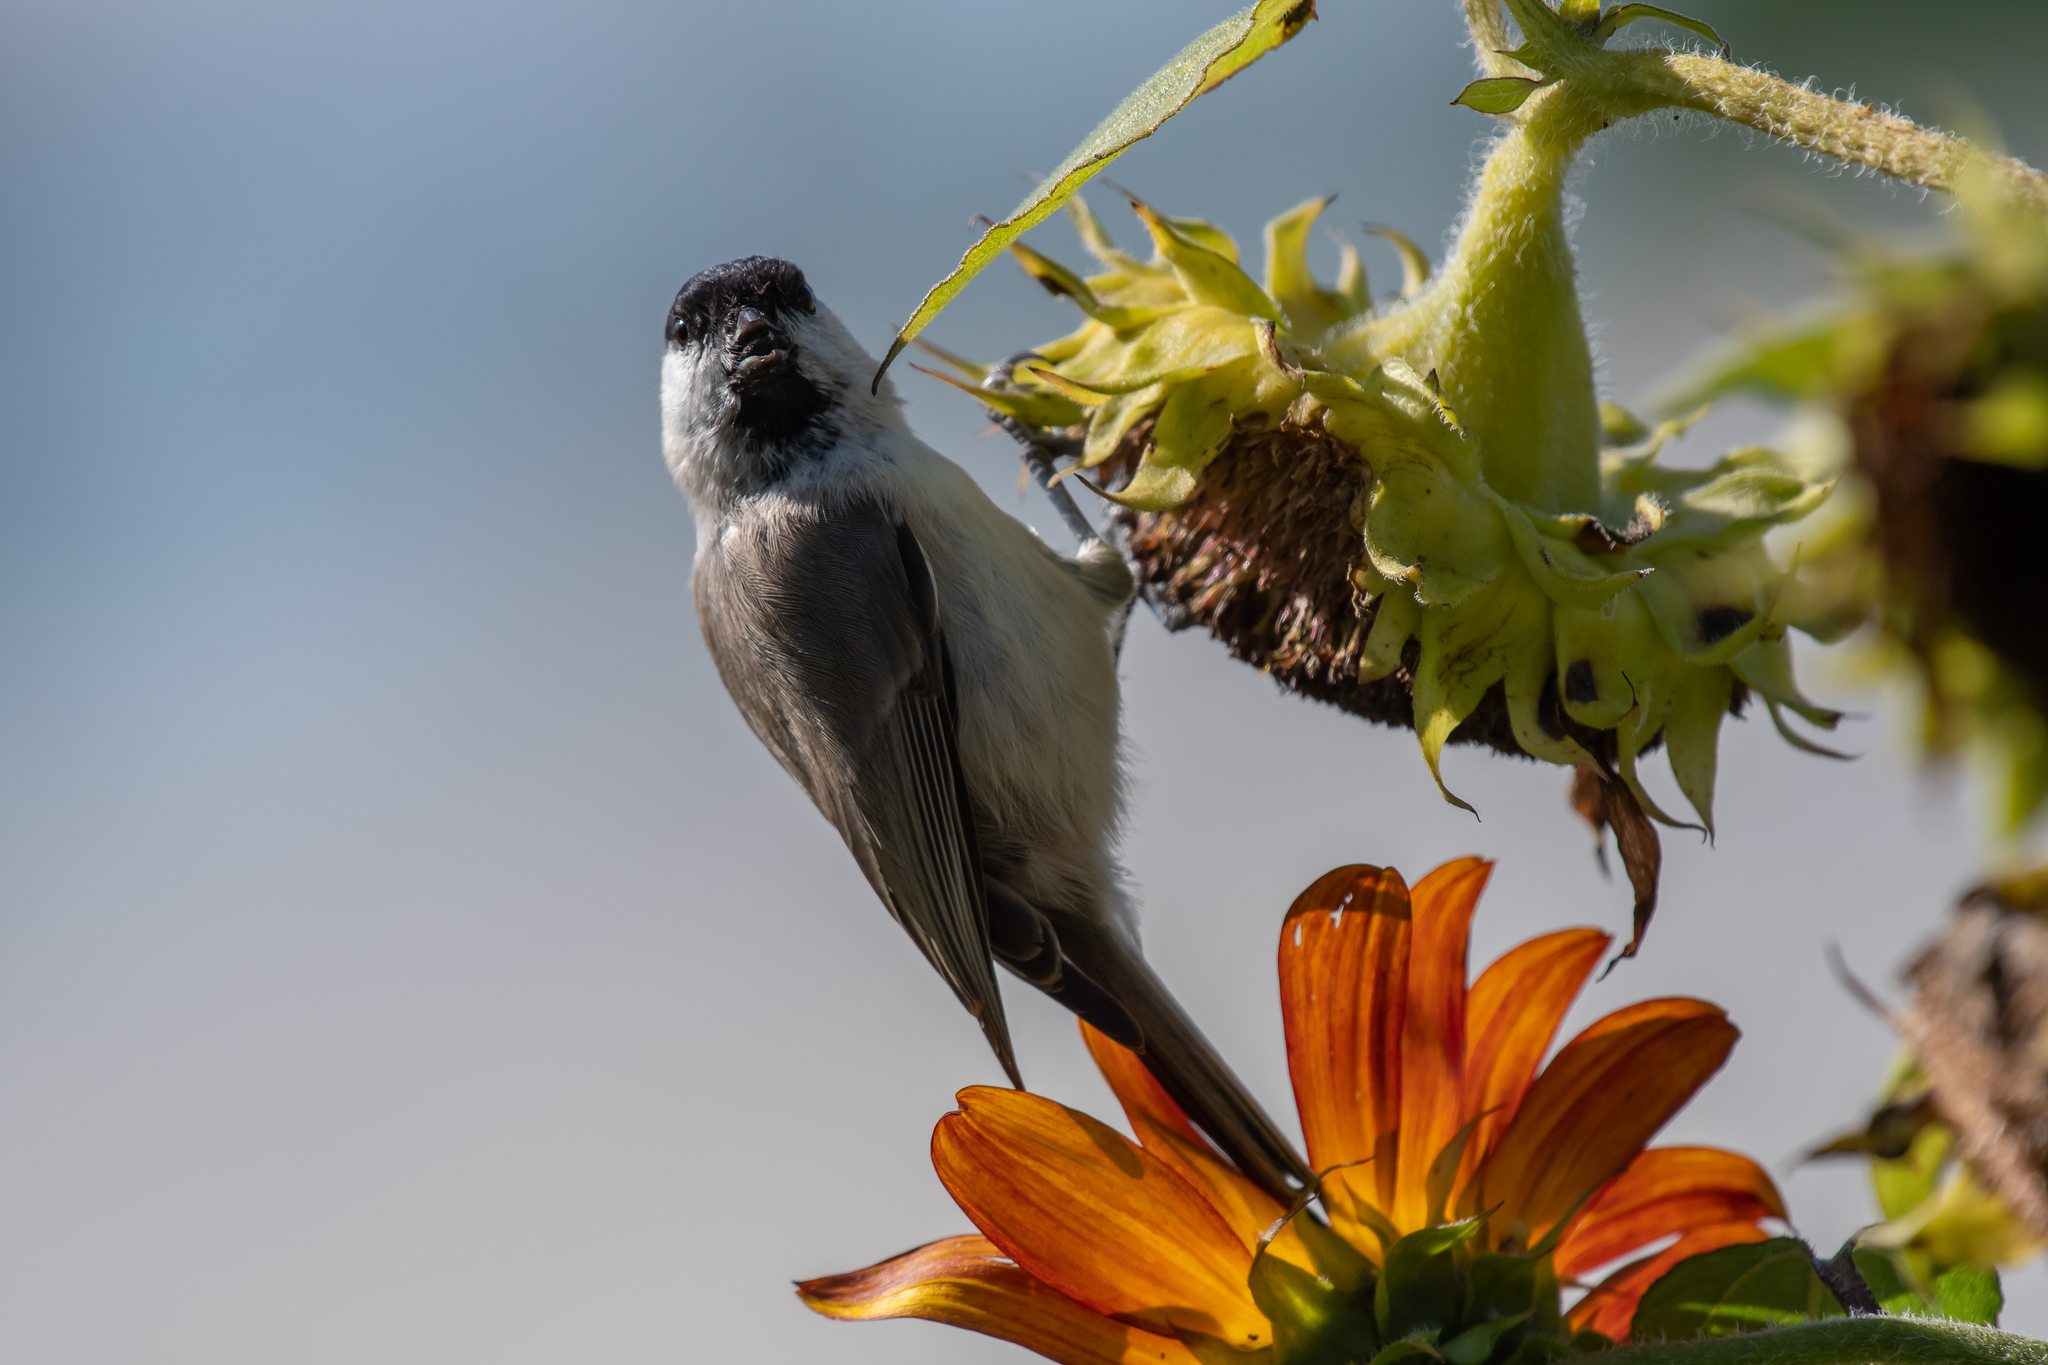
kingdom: Animalia
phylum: Chordata
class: Aves
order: Passeriformes
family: Paridae
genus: Poecile
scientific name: Poecile palustris
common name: Marsh tit
